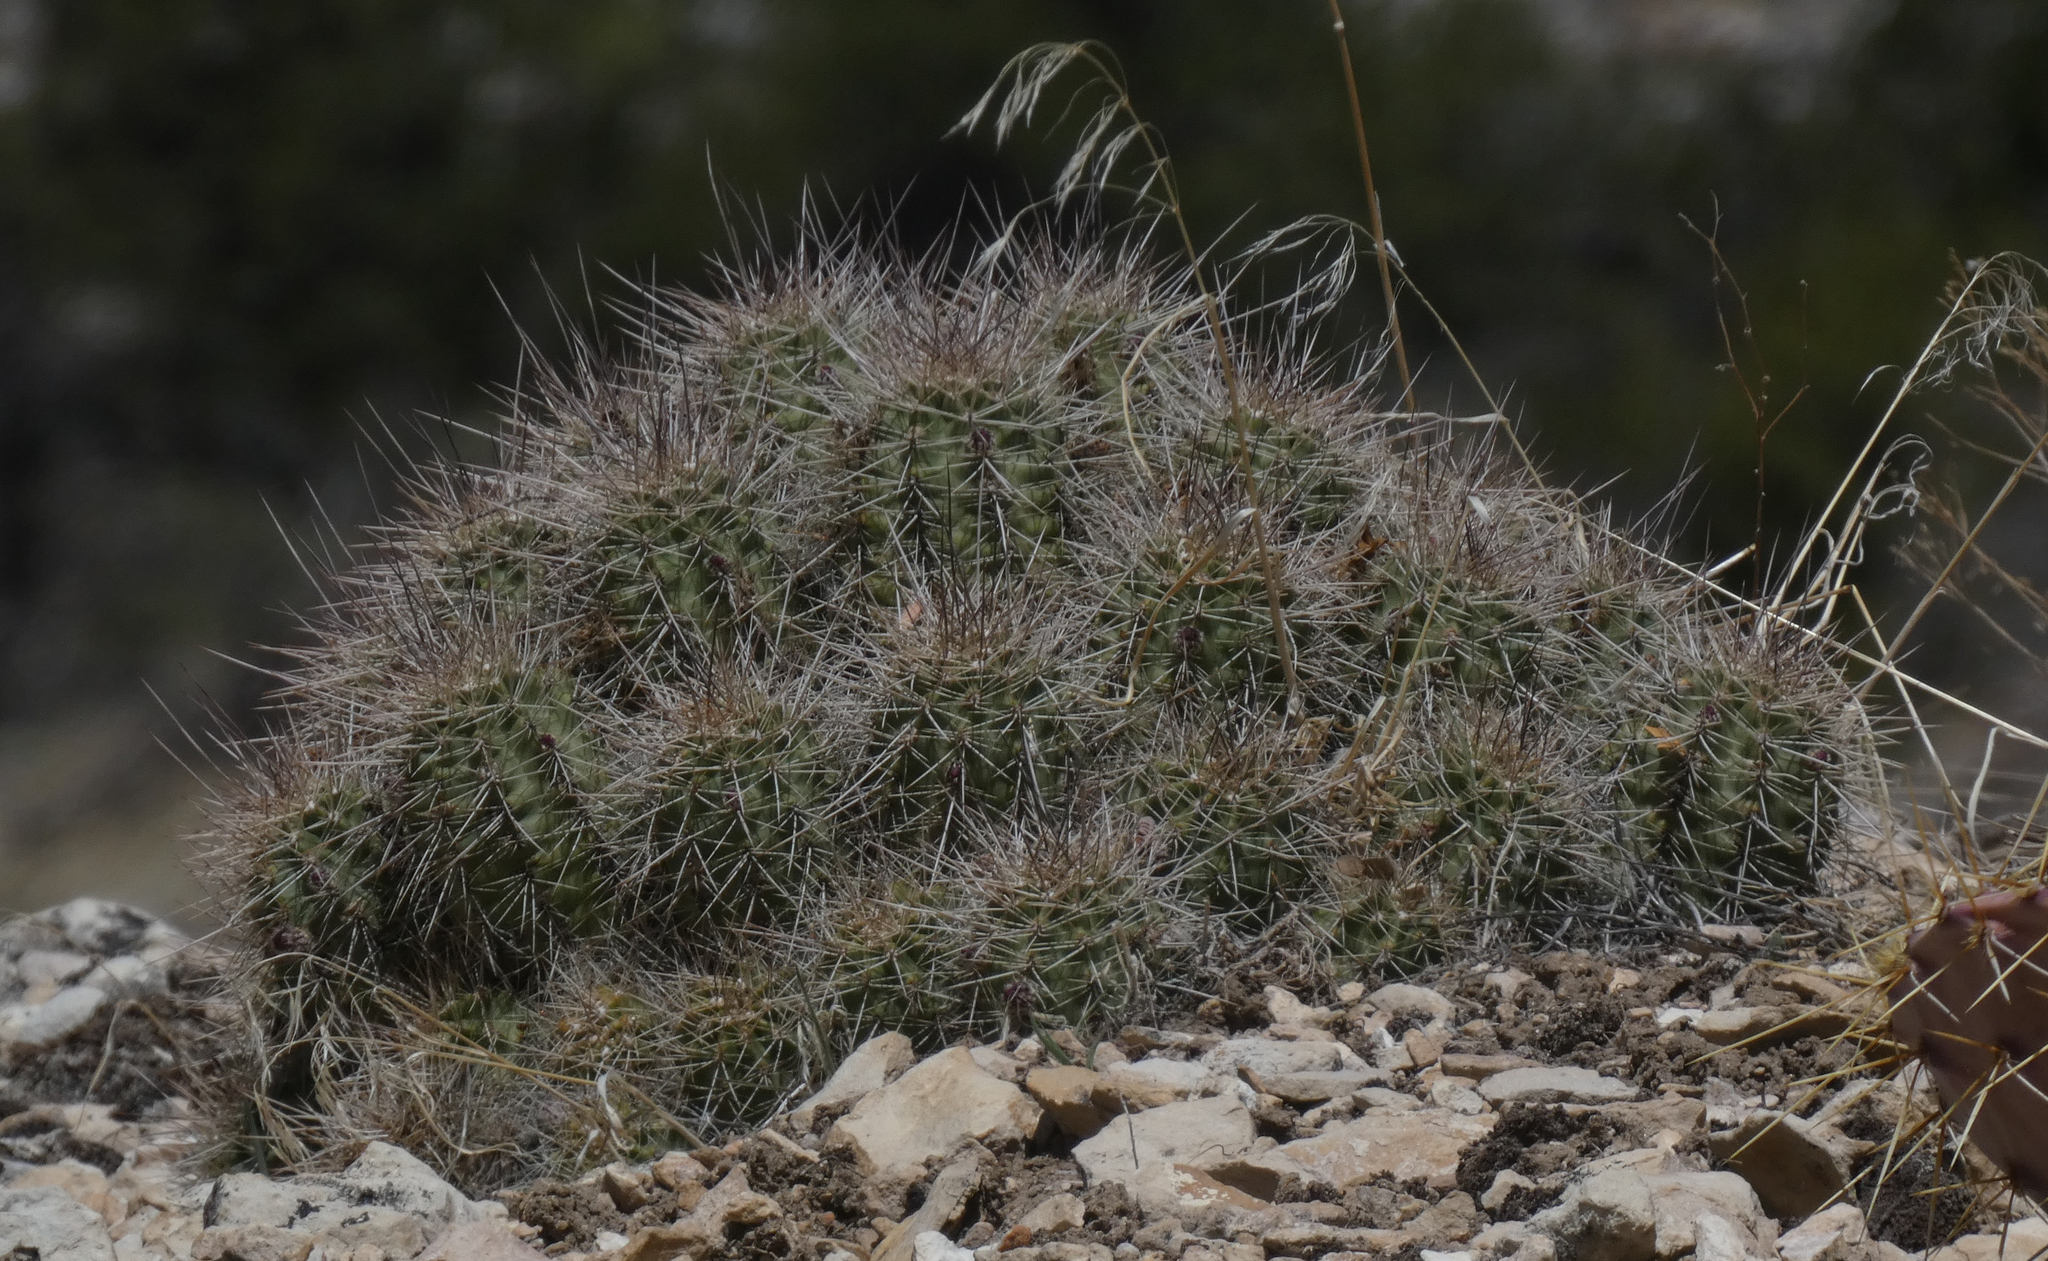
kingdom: Plantae
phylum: Tracheophyta
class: Magnoliopsida
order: Caryophyllales
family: Cactaceae
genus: Echinocereus
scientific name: Echinocereus bakeri
